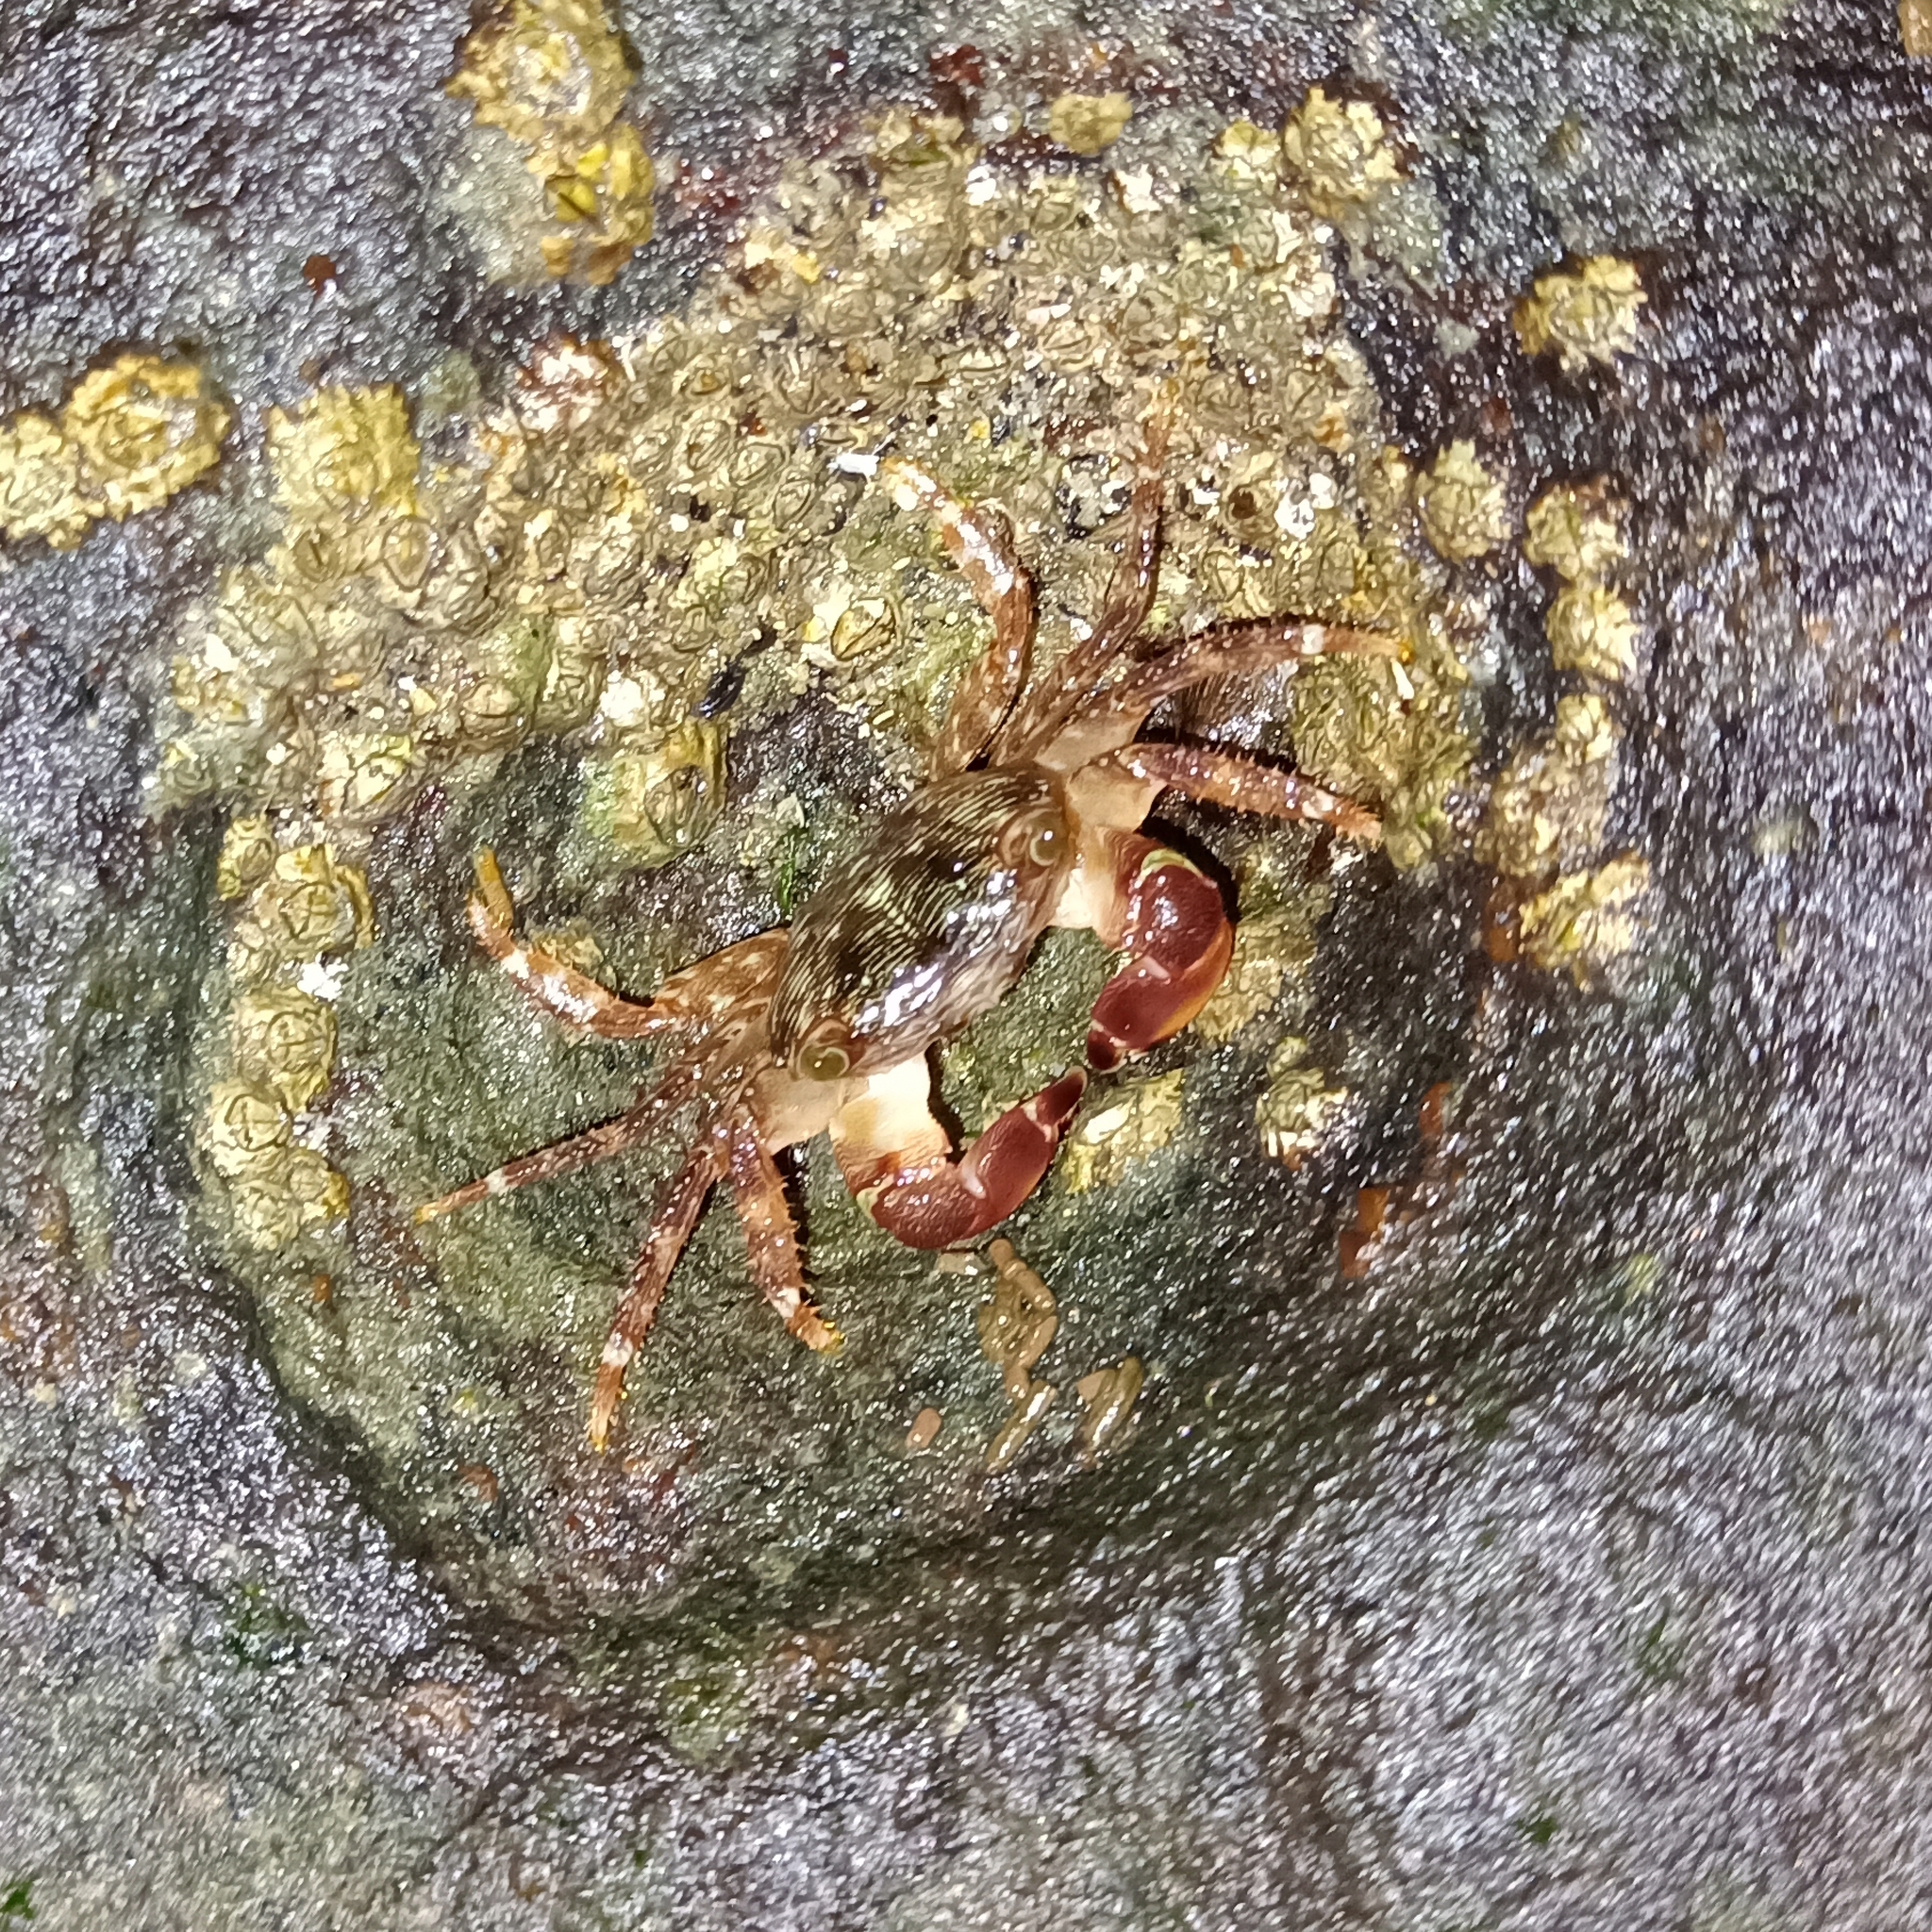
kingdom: Animalia
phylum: Arthropoda
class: Malacostraca
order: Decapoda
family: Grapsidae
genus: Pachygrapsus
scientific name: Pachygrapsus transversus
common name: Mottled shore crab
